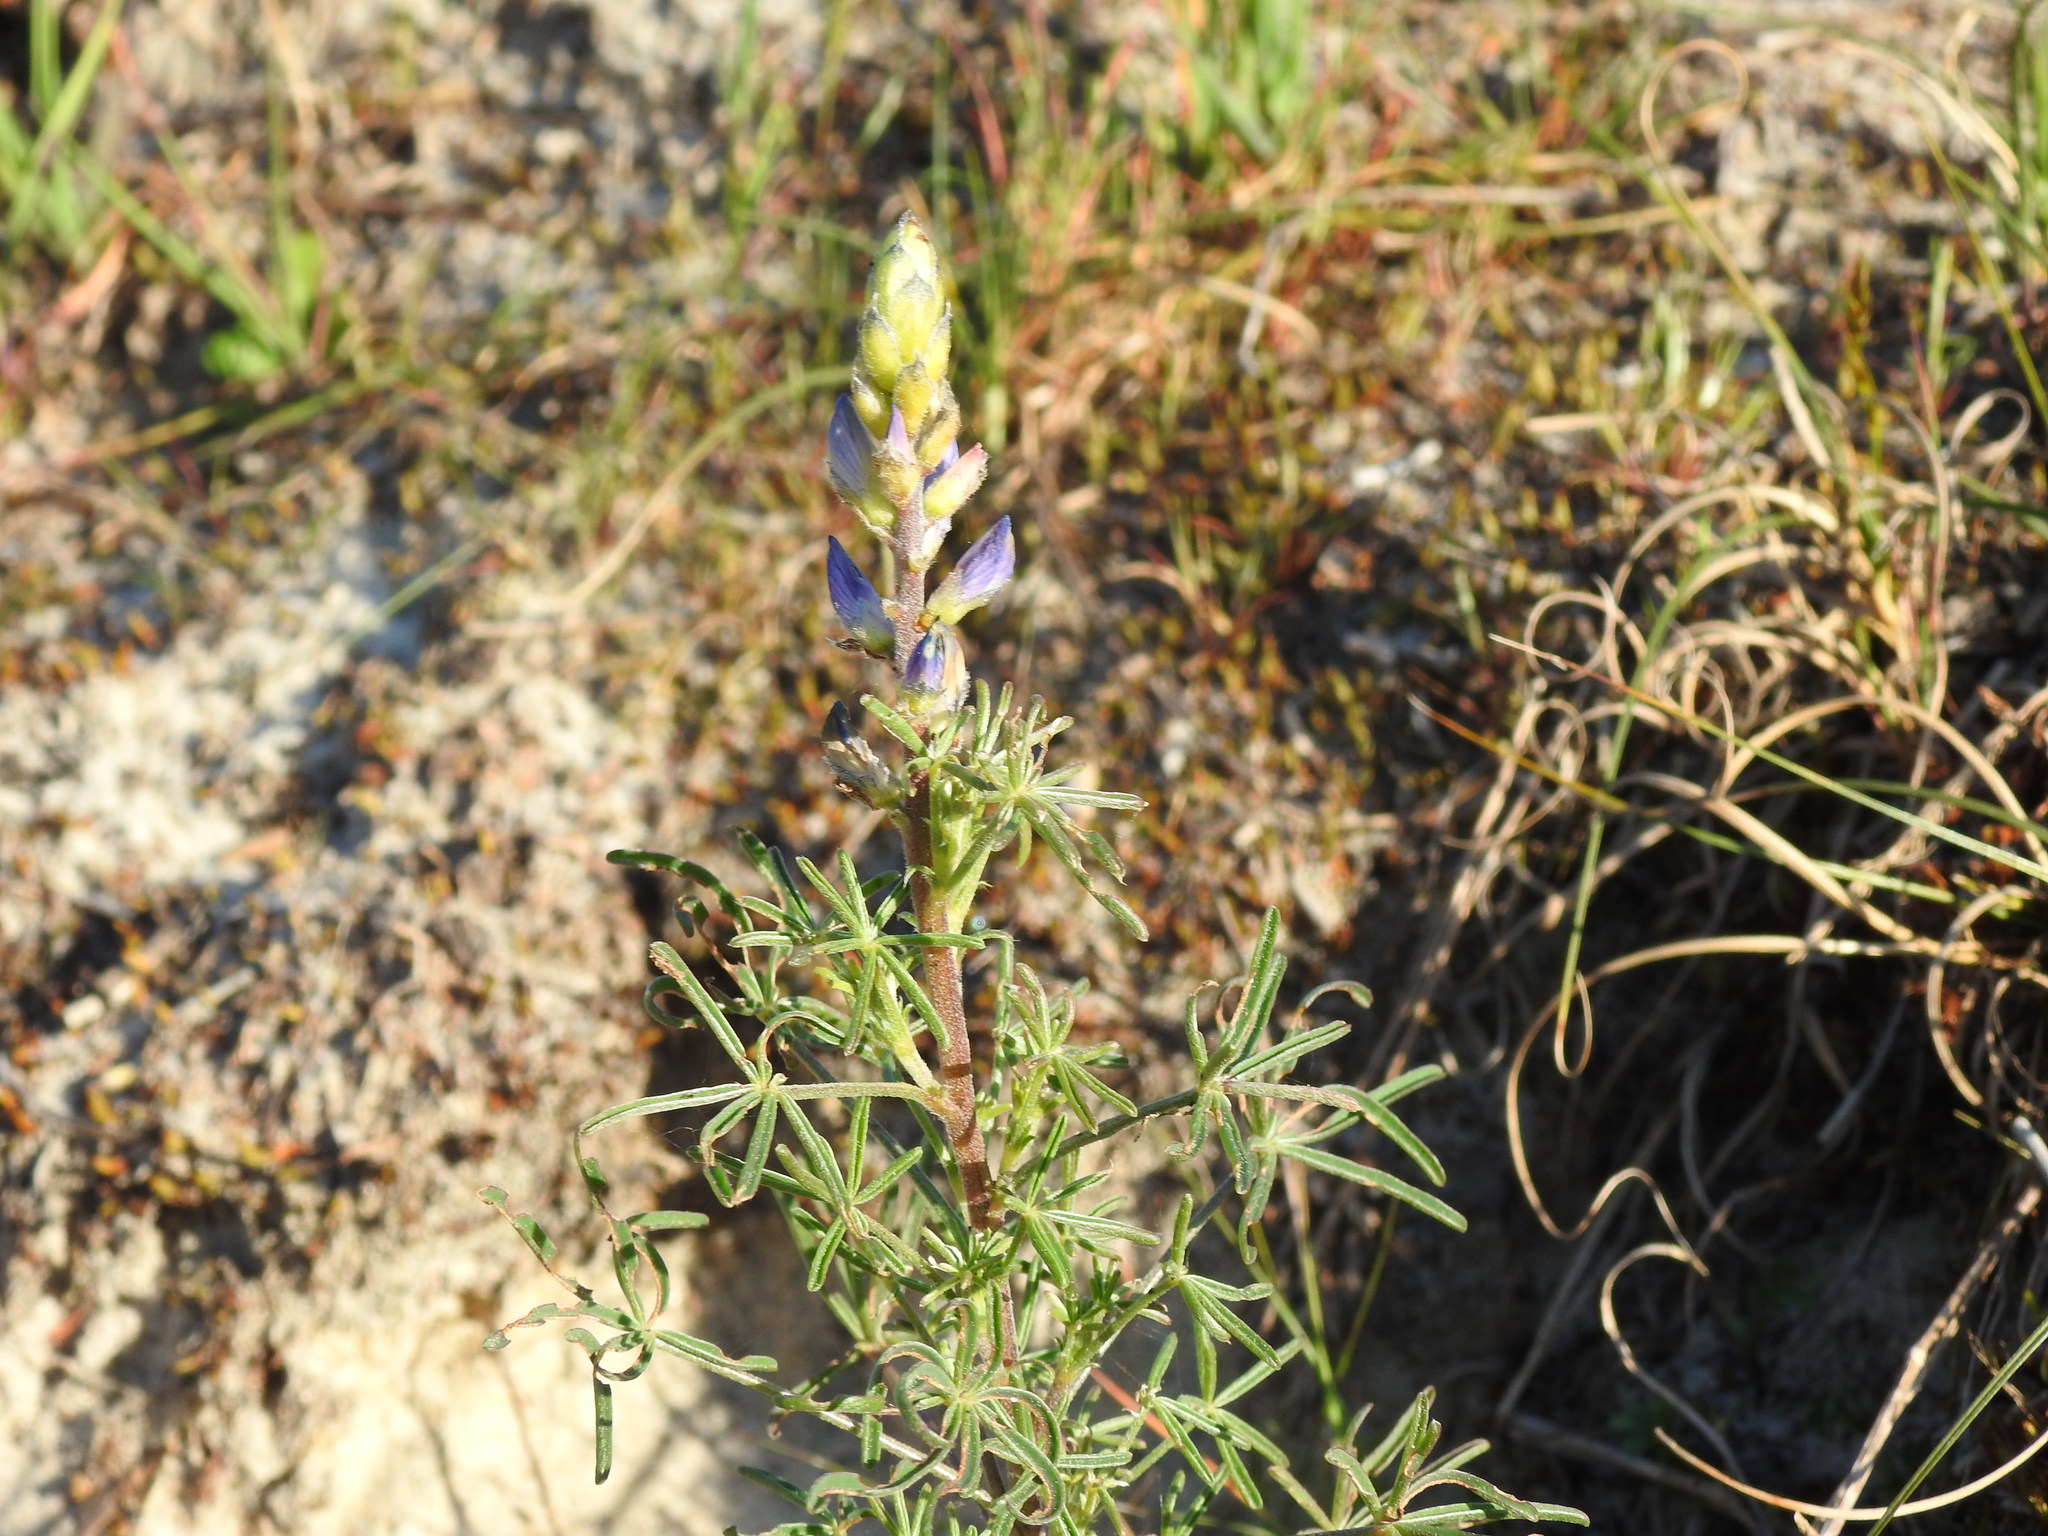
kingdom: Plantae
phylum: Tracheophyta
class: Magnoliopsida
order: Fabales
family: Fabaceae
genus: Lupinus
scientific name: Lupinus angustifolius
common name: Narrow-leaved lupin
